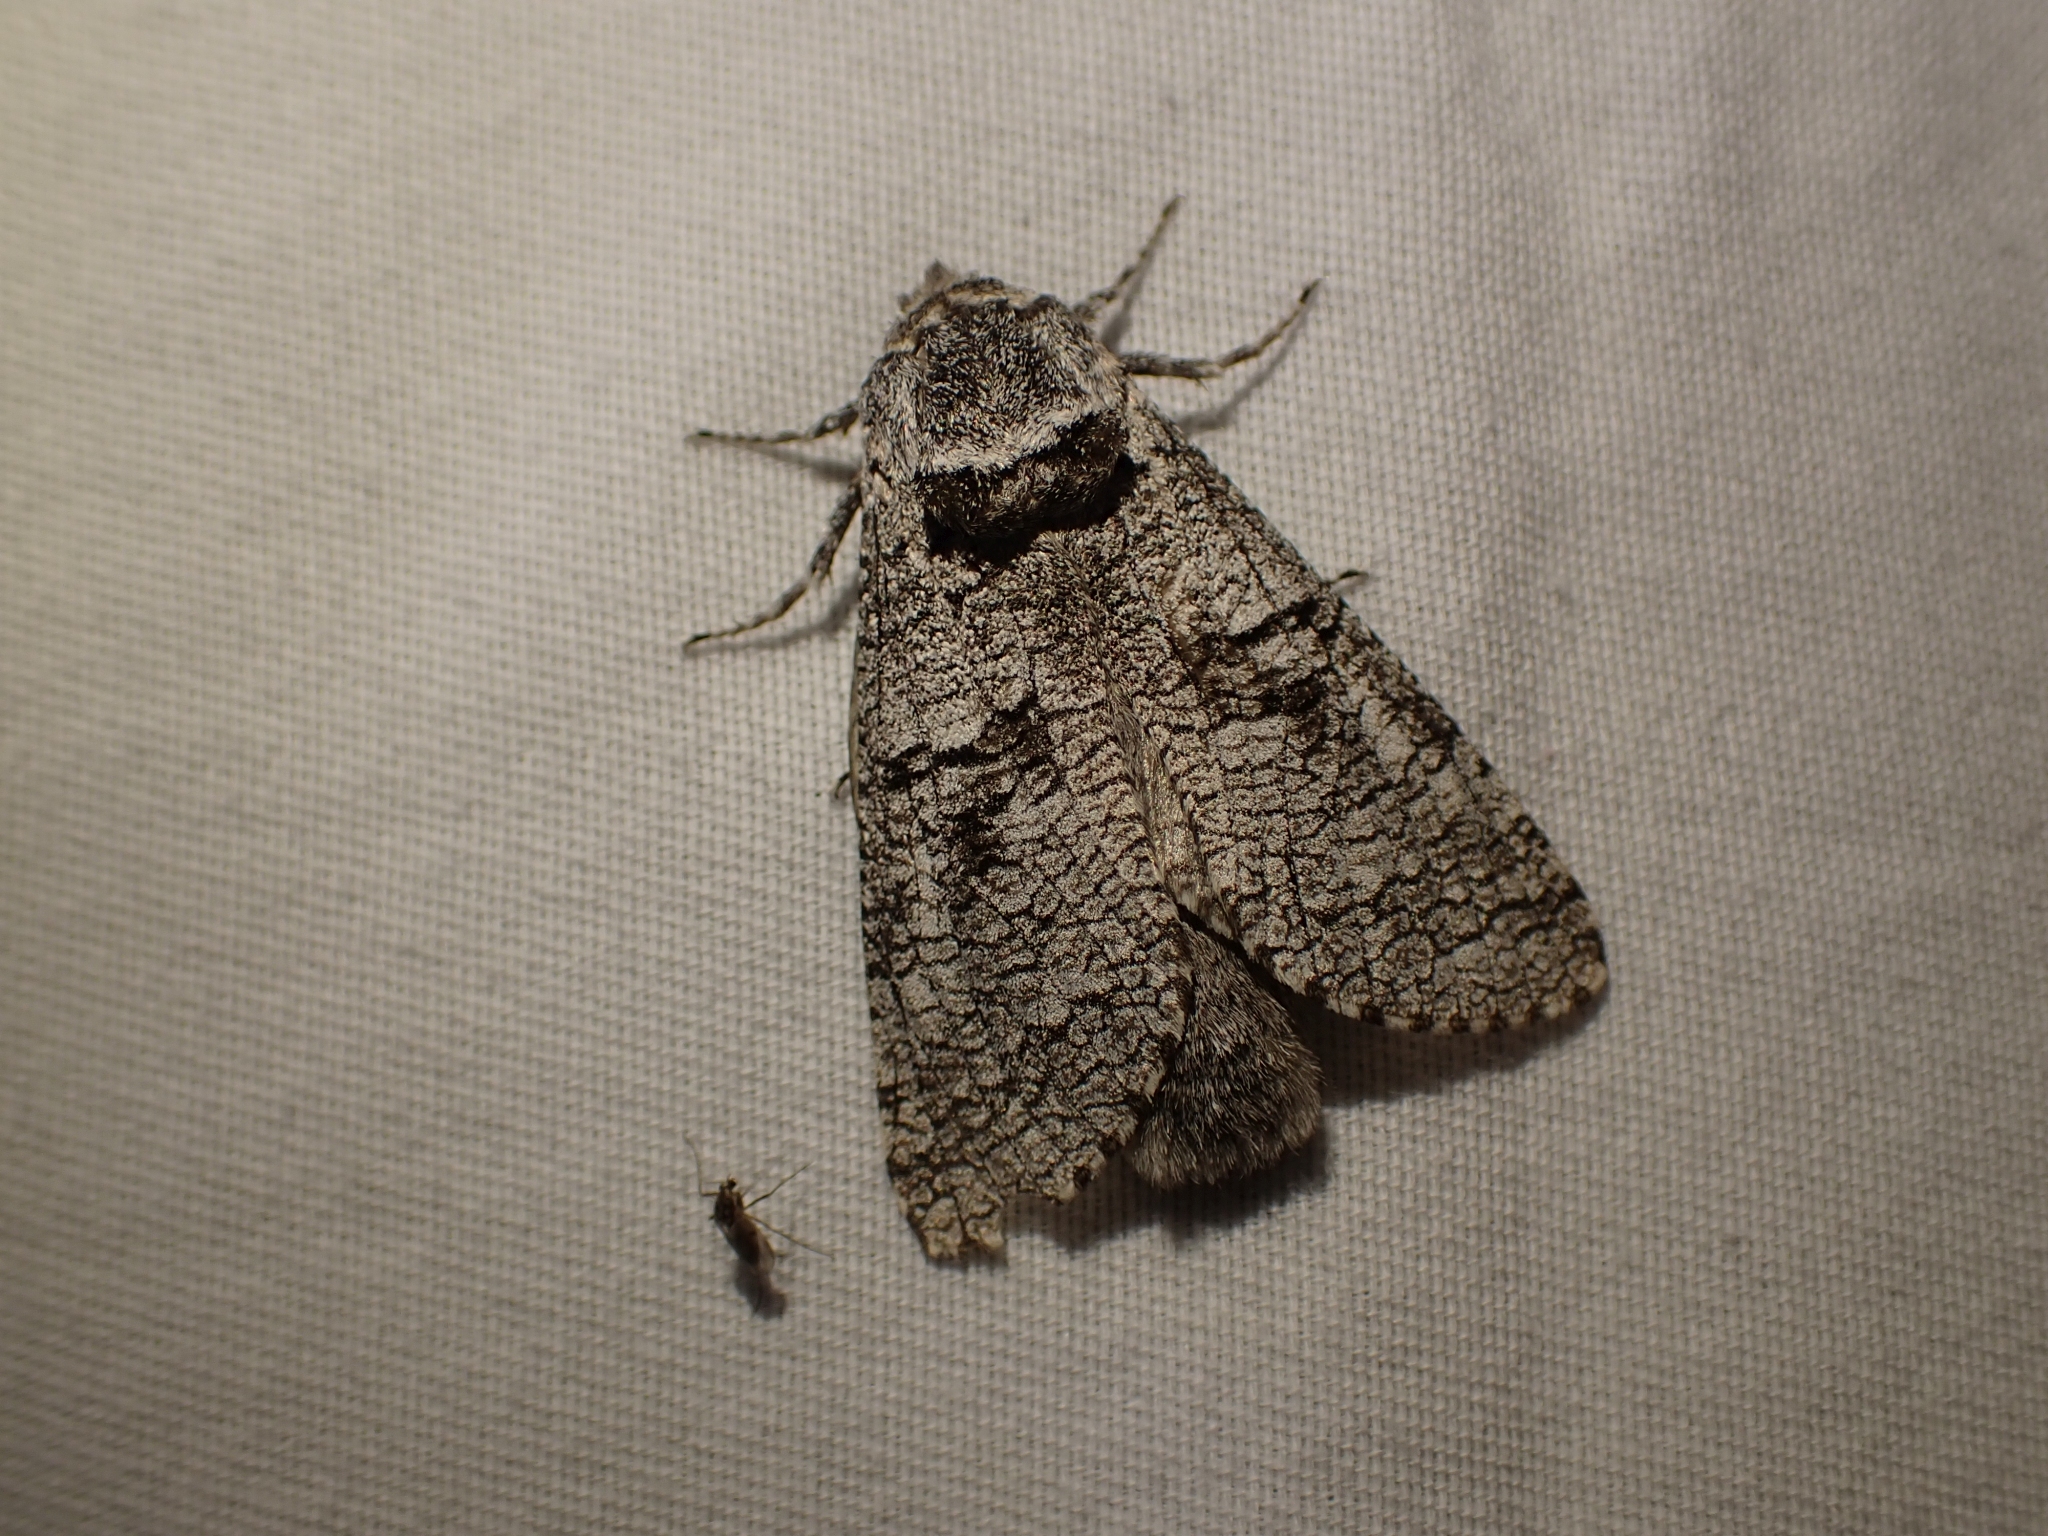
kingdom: Animalia
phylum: Arthropoda
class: Insecta
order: Lepidoptera
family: Cossidae
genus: Acossus
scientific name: Acossus populi
